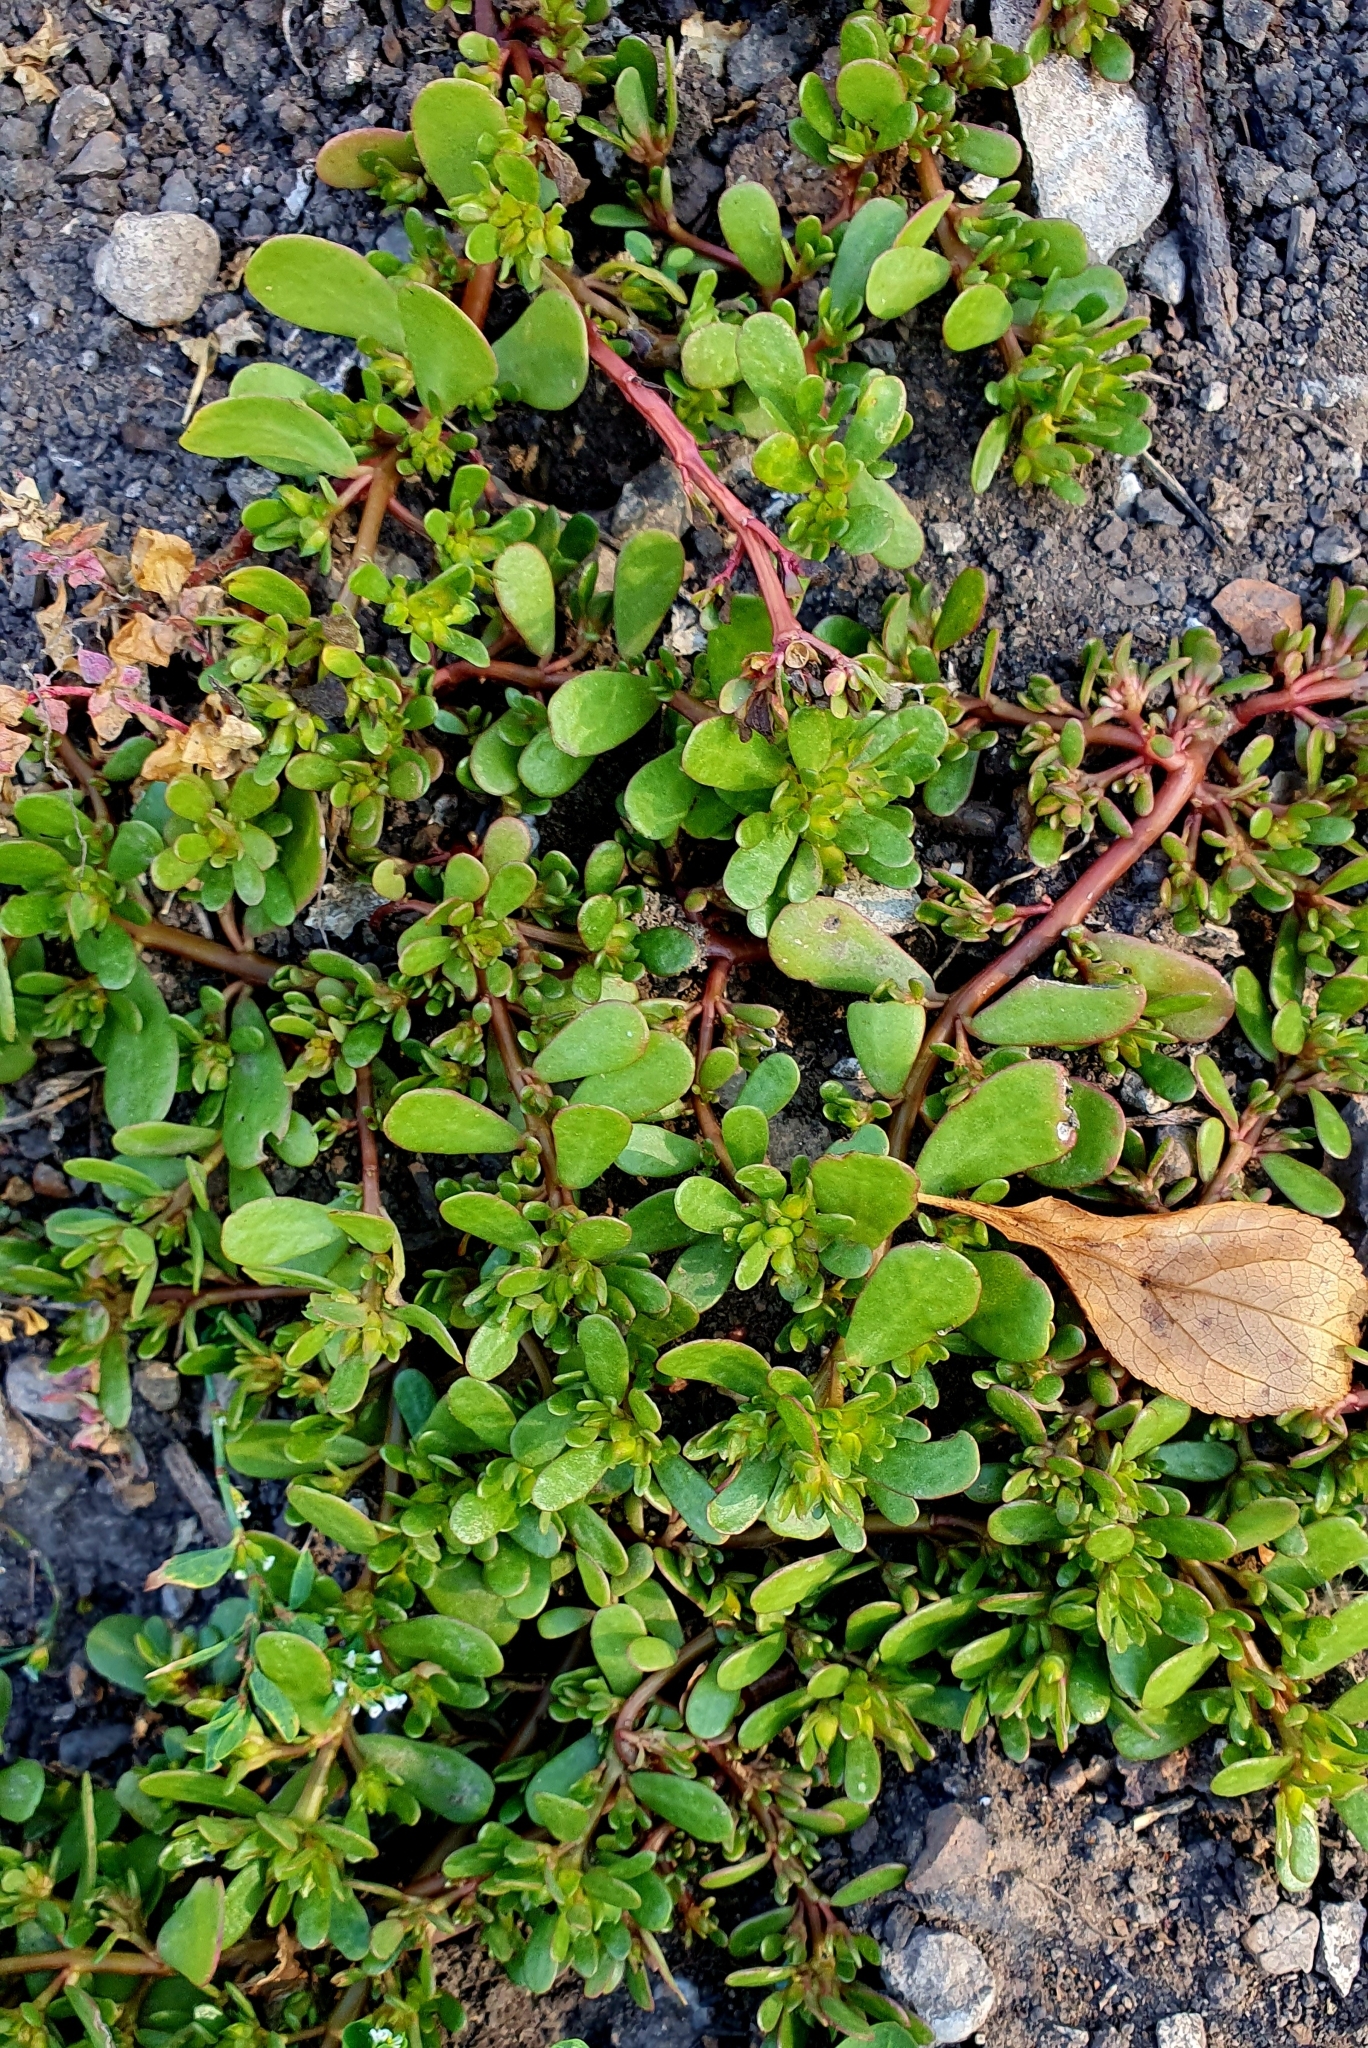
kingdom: Plantae
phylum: Tracheophyta
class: Magnoliopsida
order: Caryophyllales
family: Portulacaceae
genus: Portulaca
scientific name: Portulaca oleracea
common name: Common purslane
